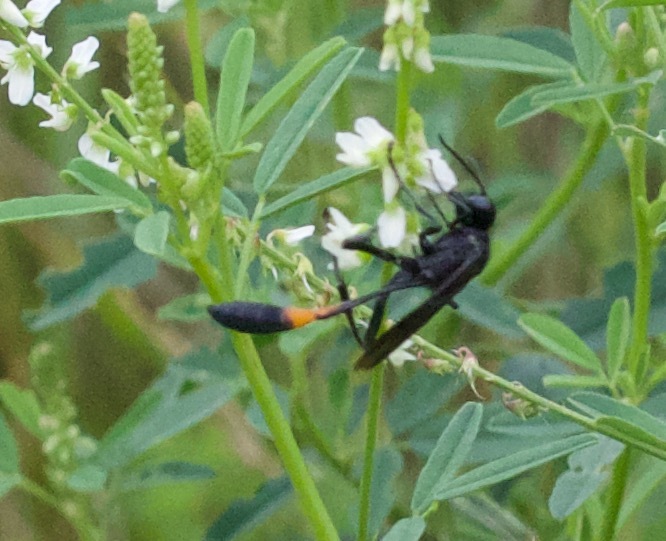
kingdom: Animalia
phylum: Arthropoda
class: Insecta
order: Hymenoptera
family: Sphecidae
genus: Ammophila
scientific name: Ammophila nigricans
